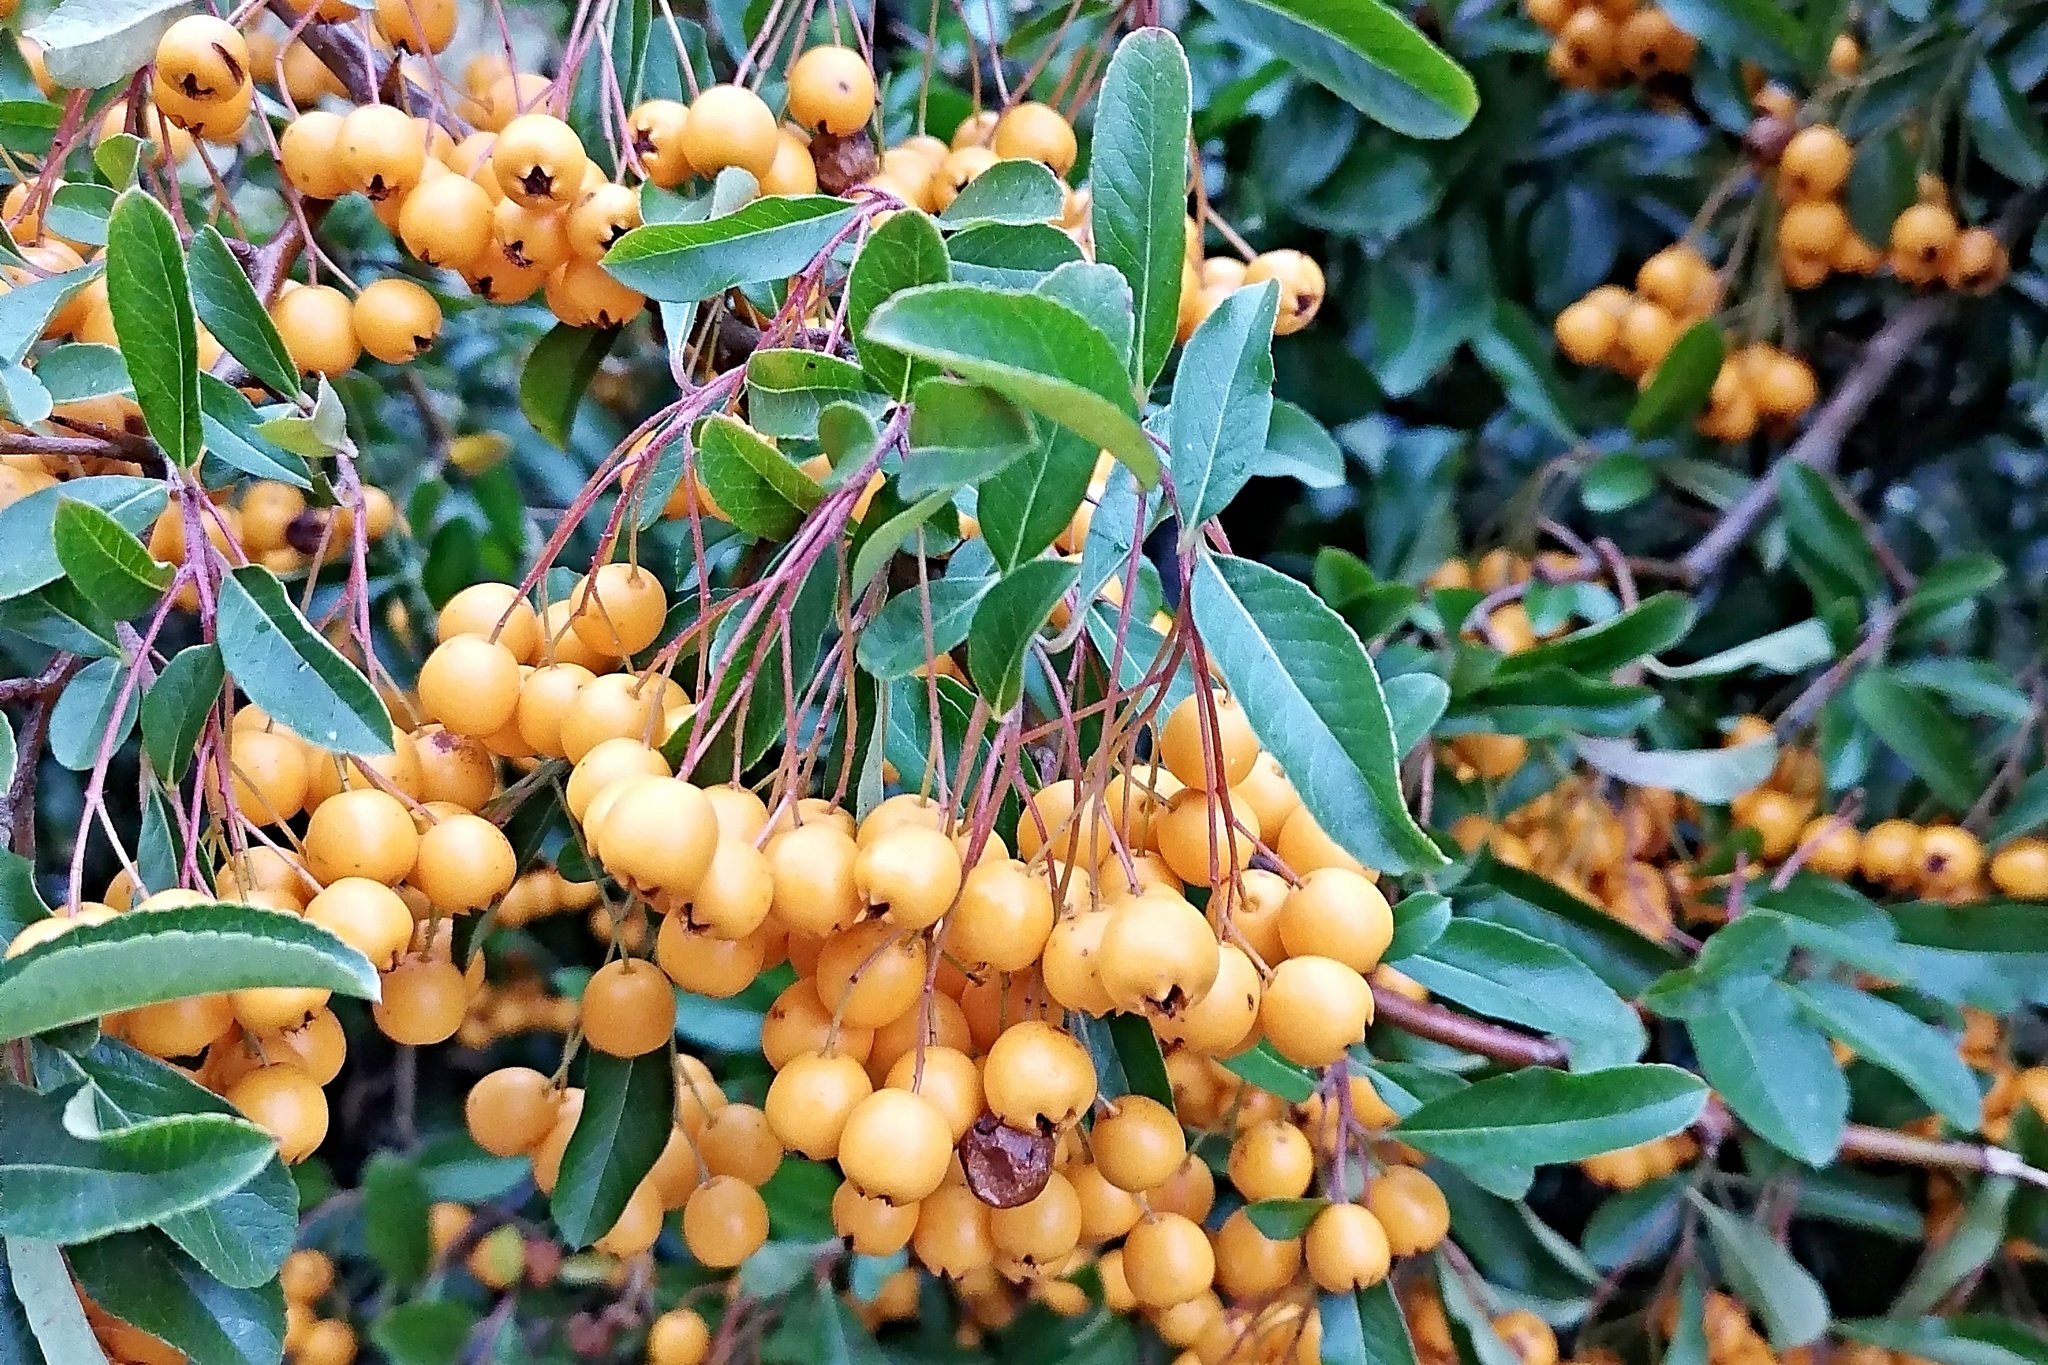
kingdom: Plantae
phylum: Tracheophyta
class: Magnoliopsida
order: Rosales
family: Rosaceae
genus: Pyracantha
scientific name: Pyracantha coccinea
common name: Firethorn
